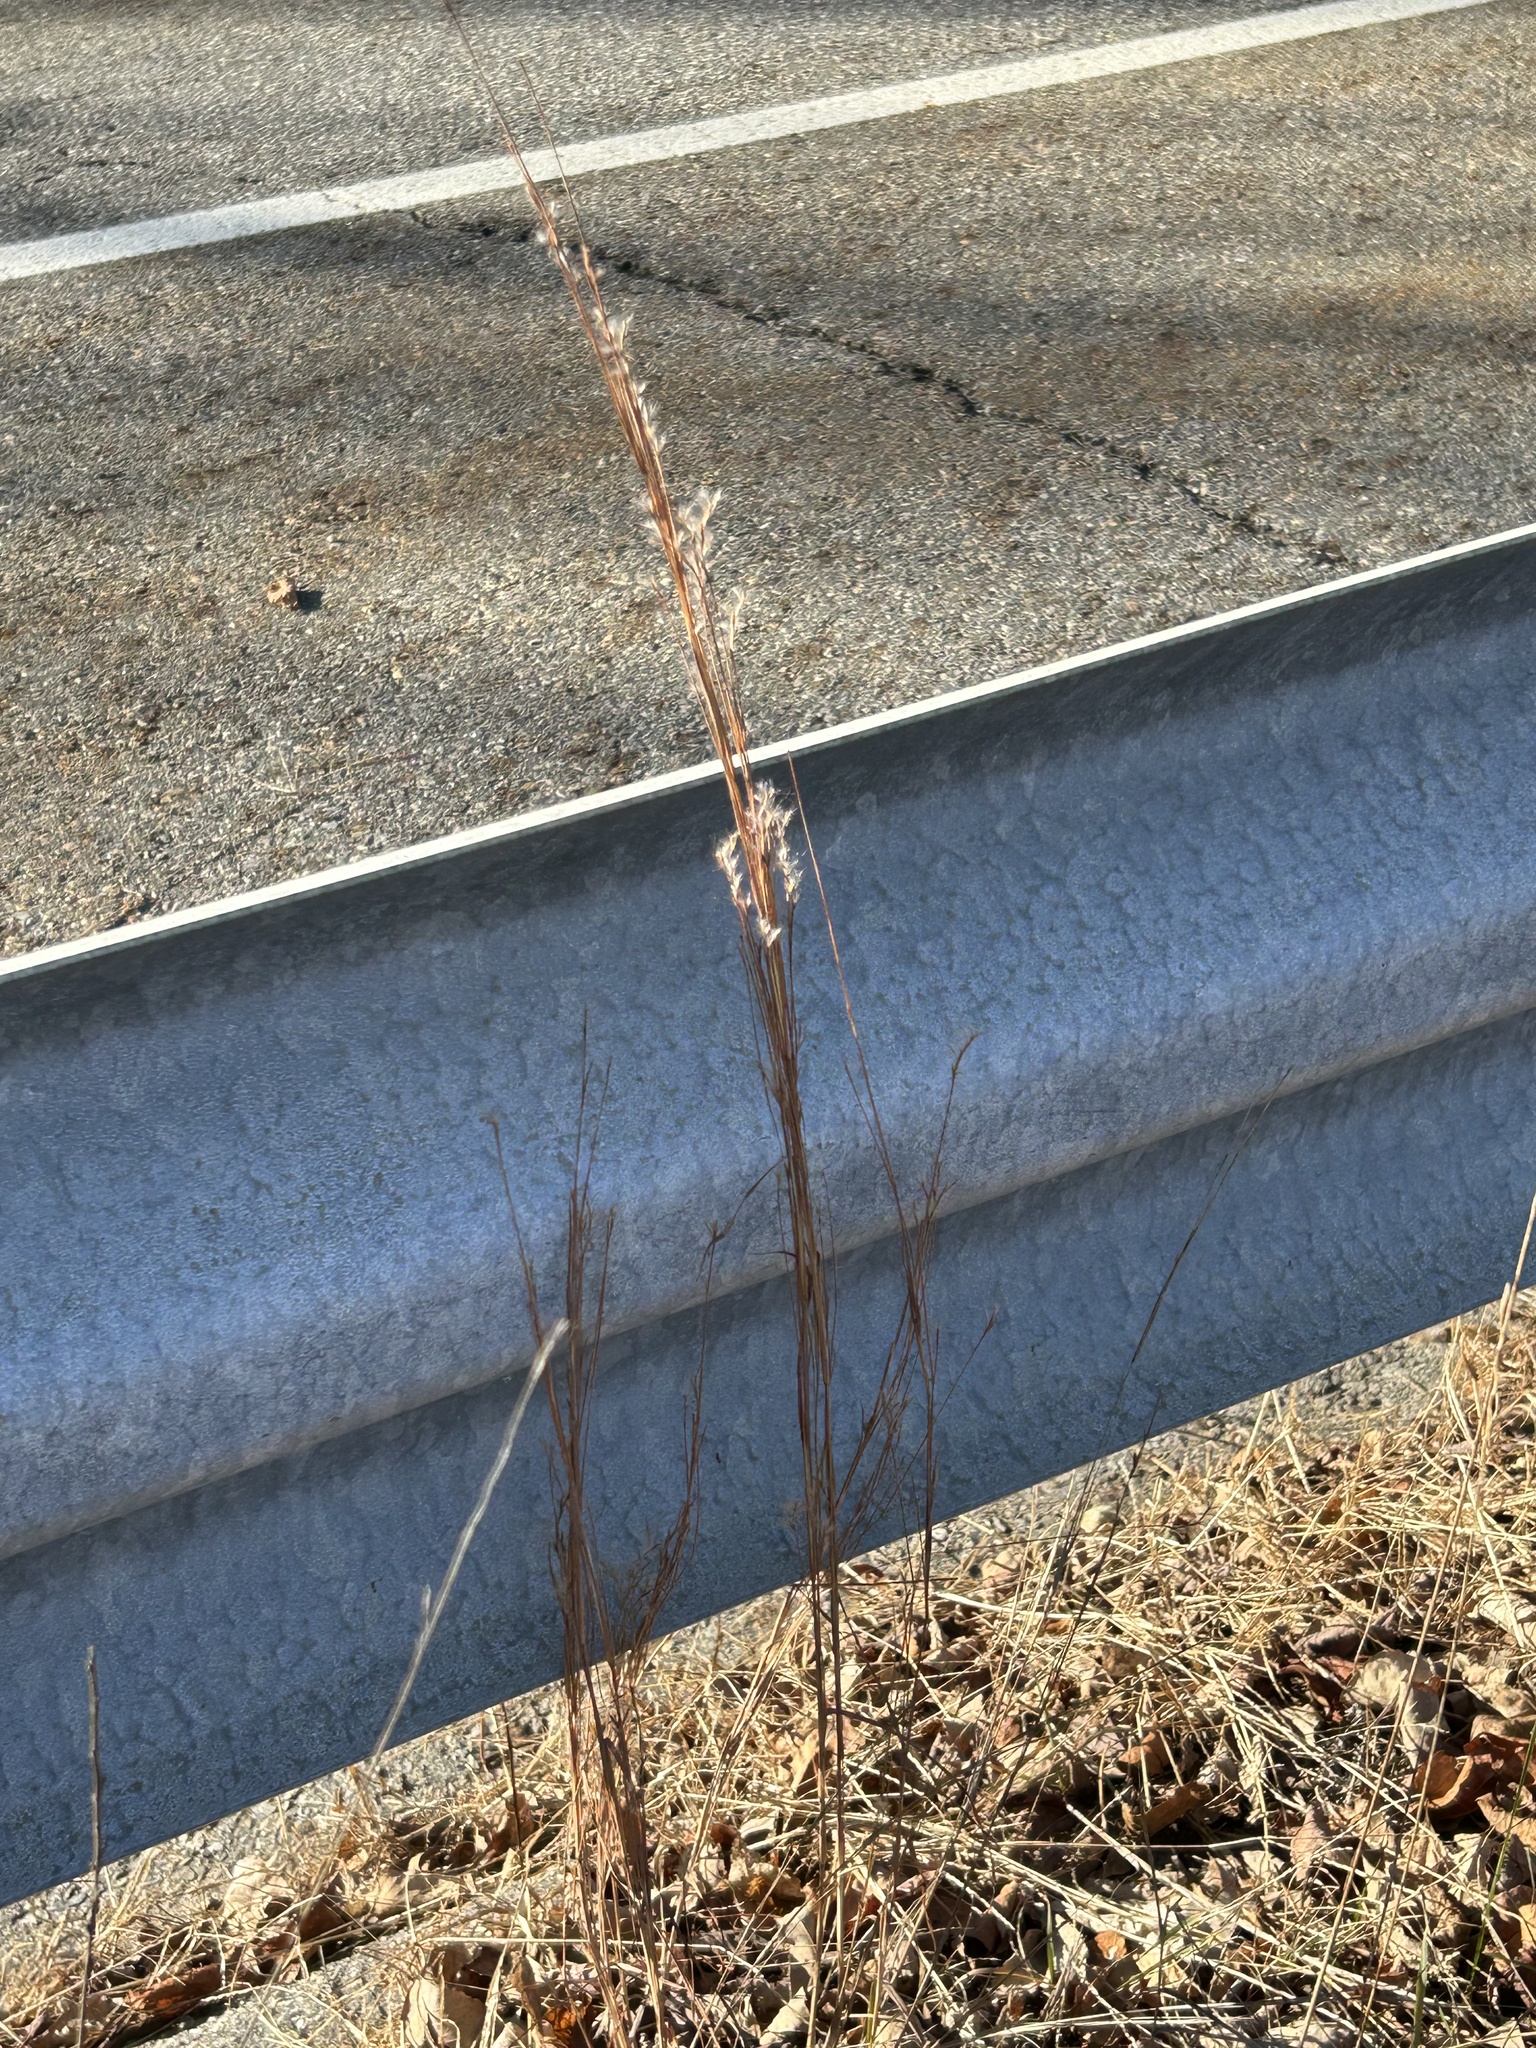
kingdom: Plantae
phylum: Tracheophyta
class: Liliopsida
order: Poales
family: Poaceae
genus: Schizachyrium
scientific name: Schizachyrium scoparium
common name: Little bluestem
